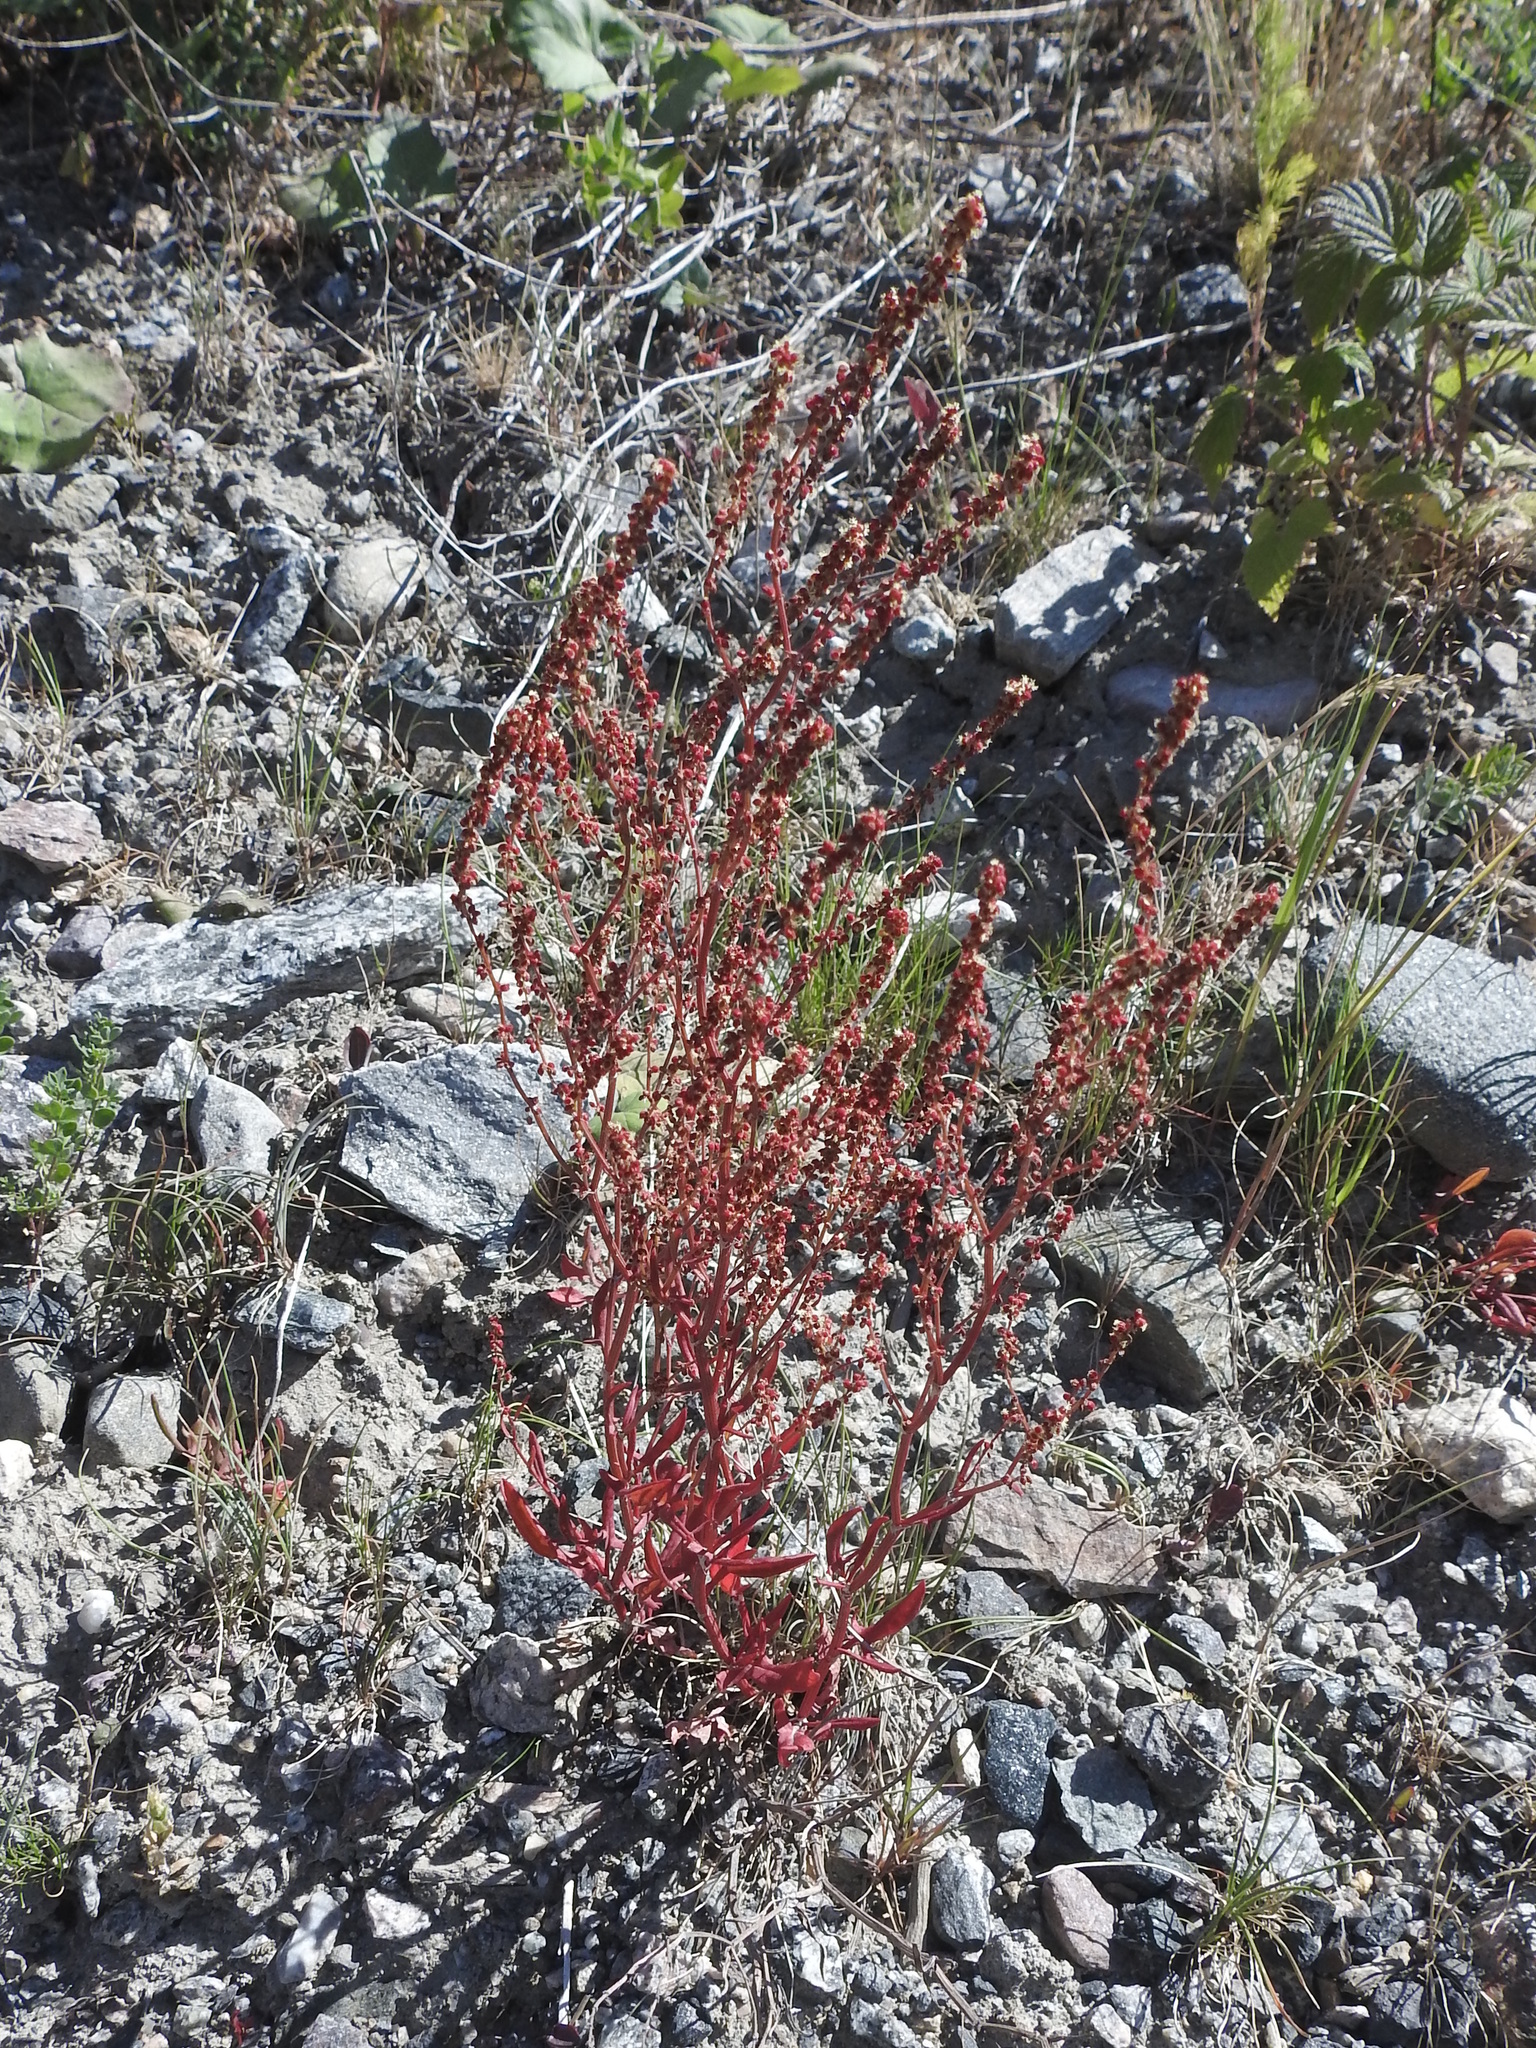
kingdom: Plantae
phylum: Tracheophyta
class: Magnoliopsida
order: Caryophyllales
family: Polygonaceae
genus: Rumex
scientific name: Rumex acetosella
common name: Common sheep sorrel
